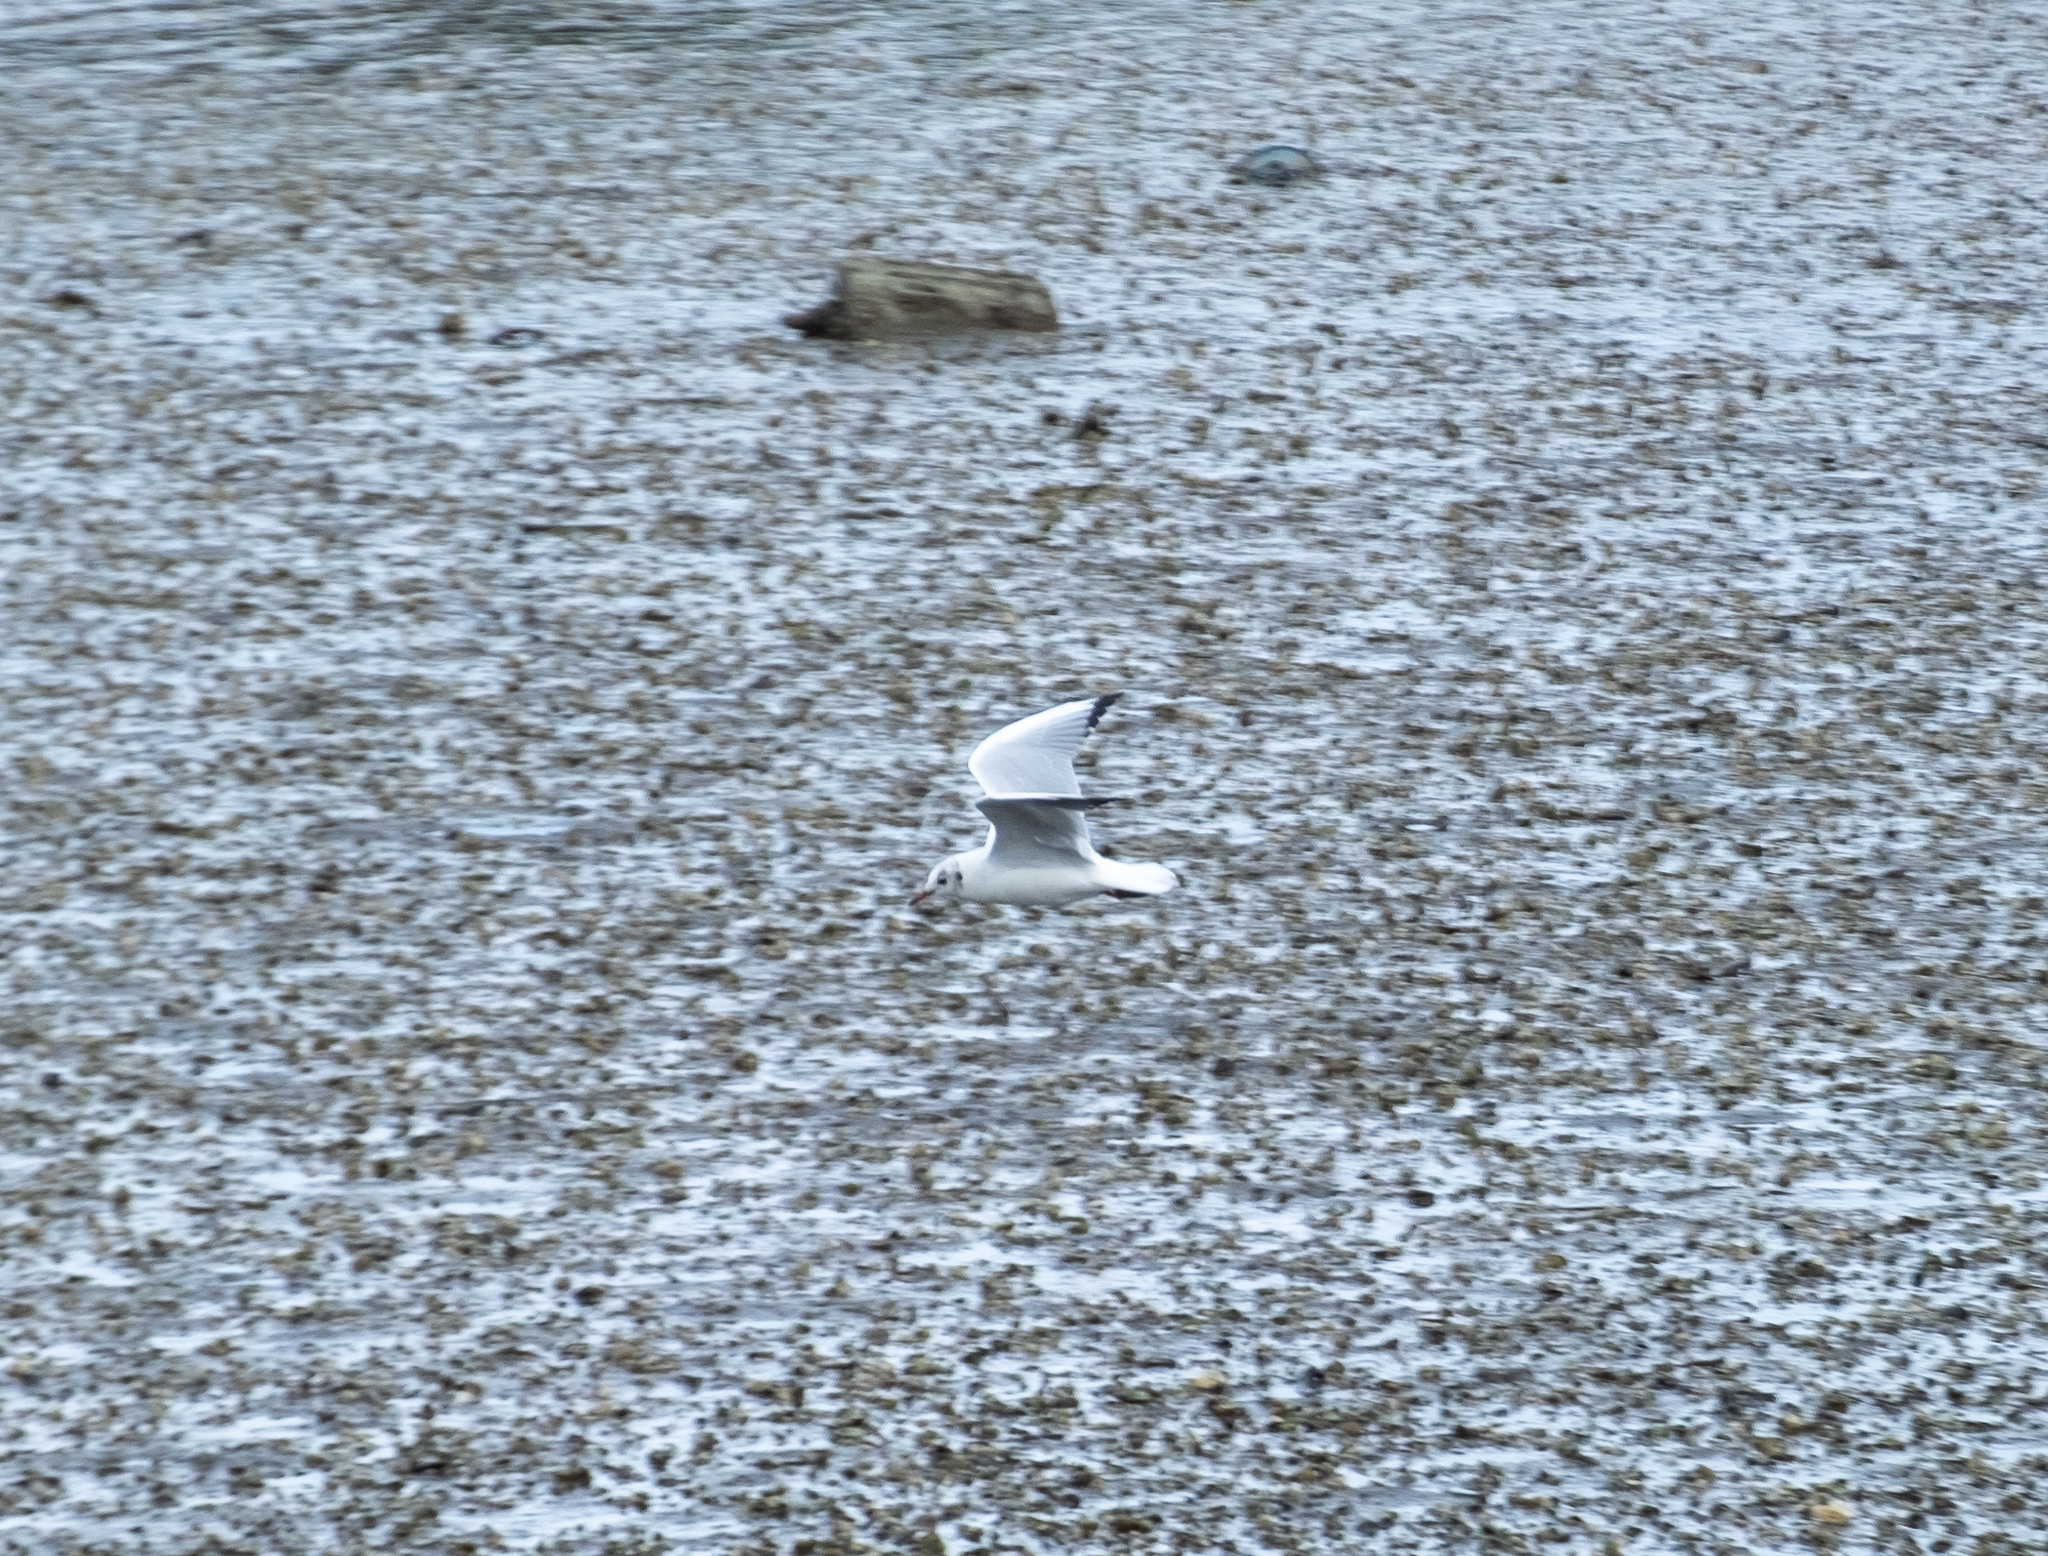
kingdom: Animalia
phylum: Chordata
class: Aves
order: Charadriiformes
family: Laridae
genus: Chroicocephalus
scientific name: Chroicocephalus ridibundus
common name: Black-headed gull
